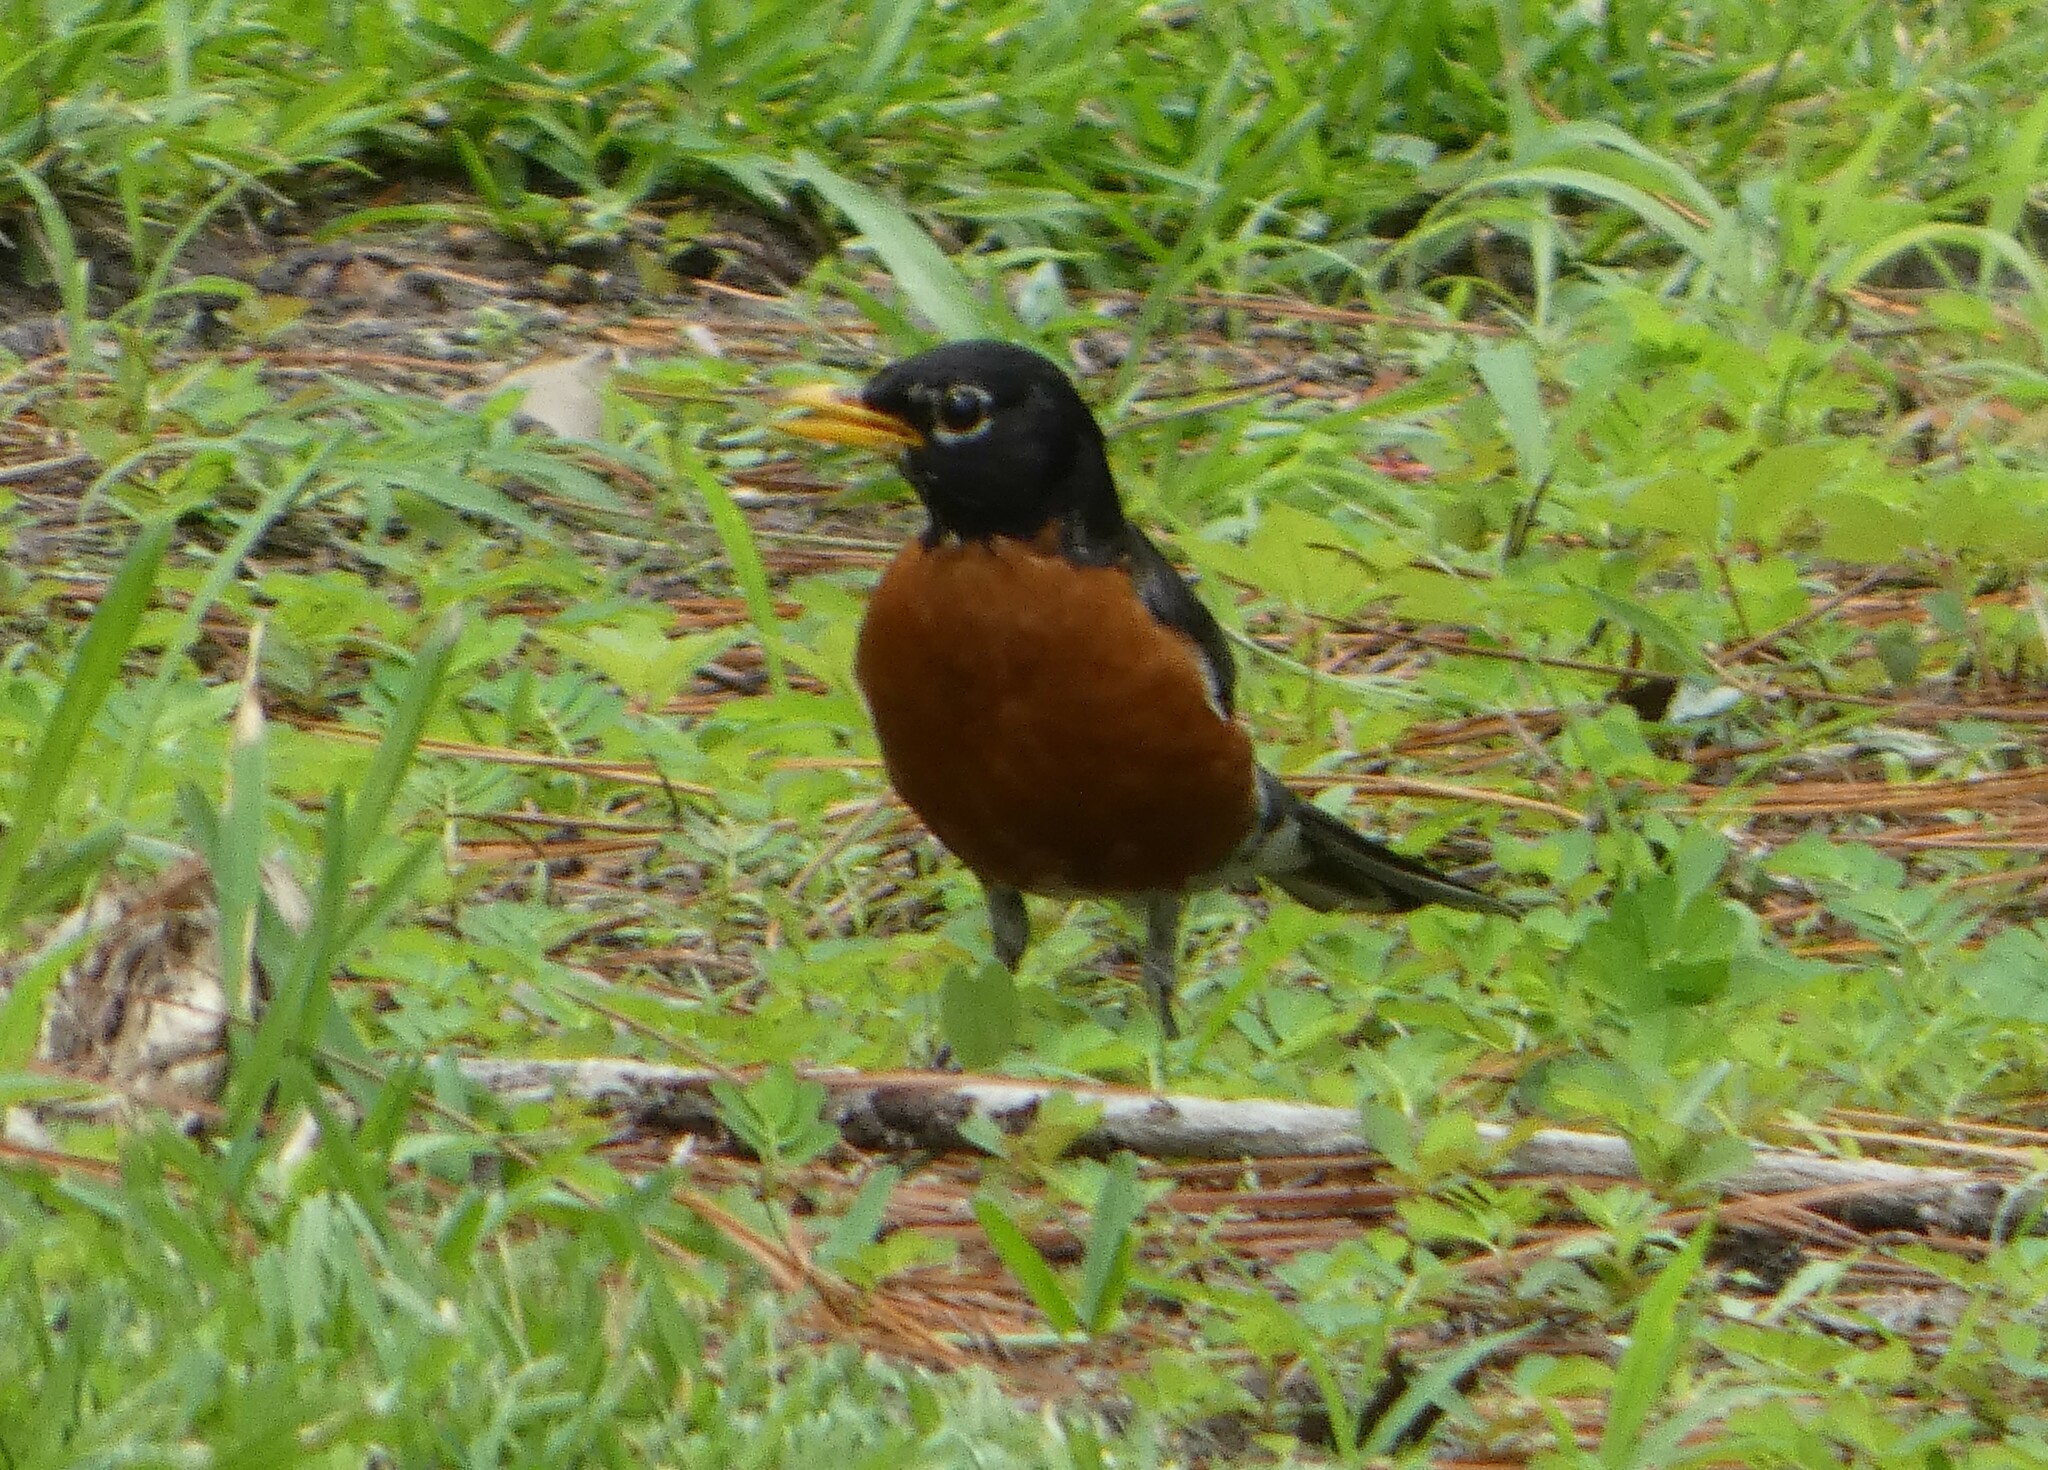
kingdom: Animalia
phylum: Chordata
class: Aves
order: Passeriformes
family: Turdidae
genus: Turdus
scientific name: Turdus migratorius
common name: American robin
